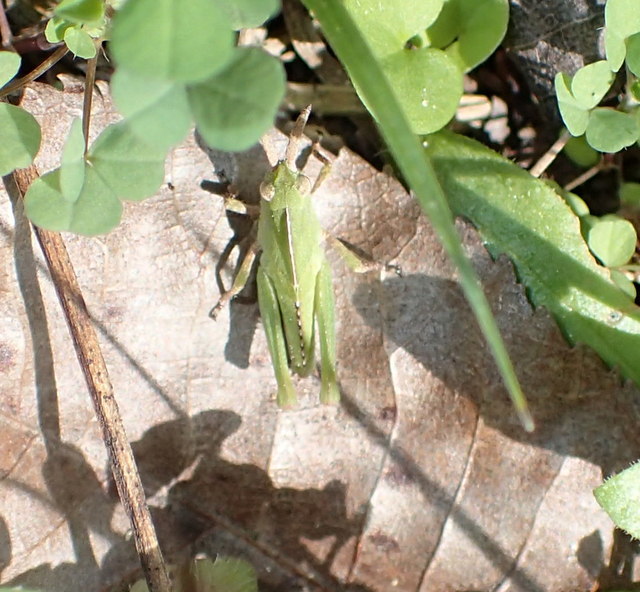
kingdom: Animalia
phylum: Arthropoda
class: Insecta
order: Orthoptera
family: Acrididae
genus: Chortophaga
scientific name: Chortophaga australior
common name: Southern green-striped grasshopper
